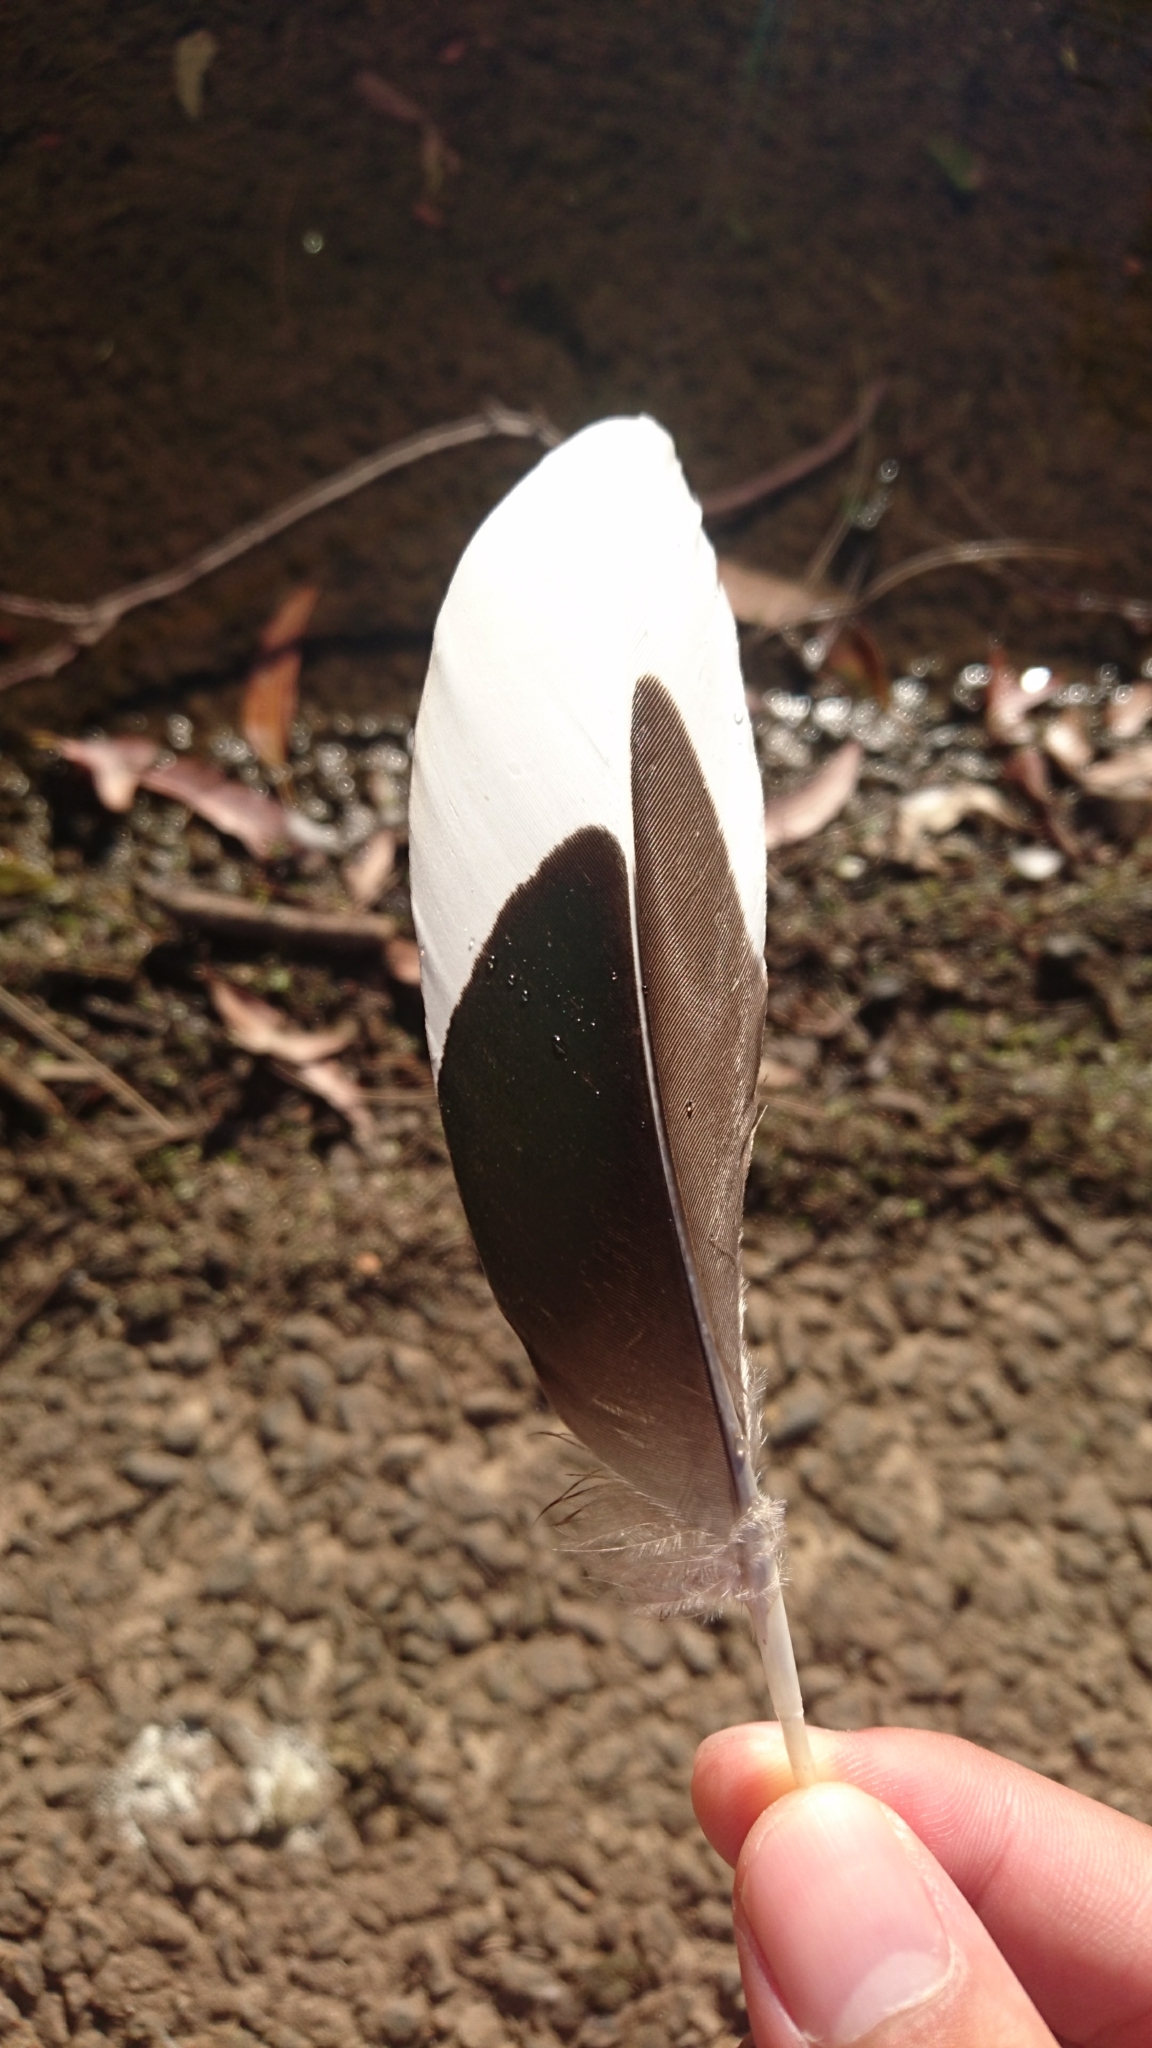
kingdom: Animalia
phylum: Chordata
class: Aves
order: Anseriformes
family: Anatidae
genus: Chenonetta
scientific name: Chenonetta jubata
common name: Maned duck
